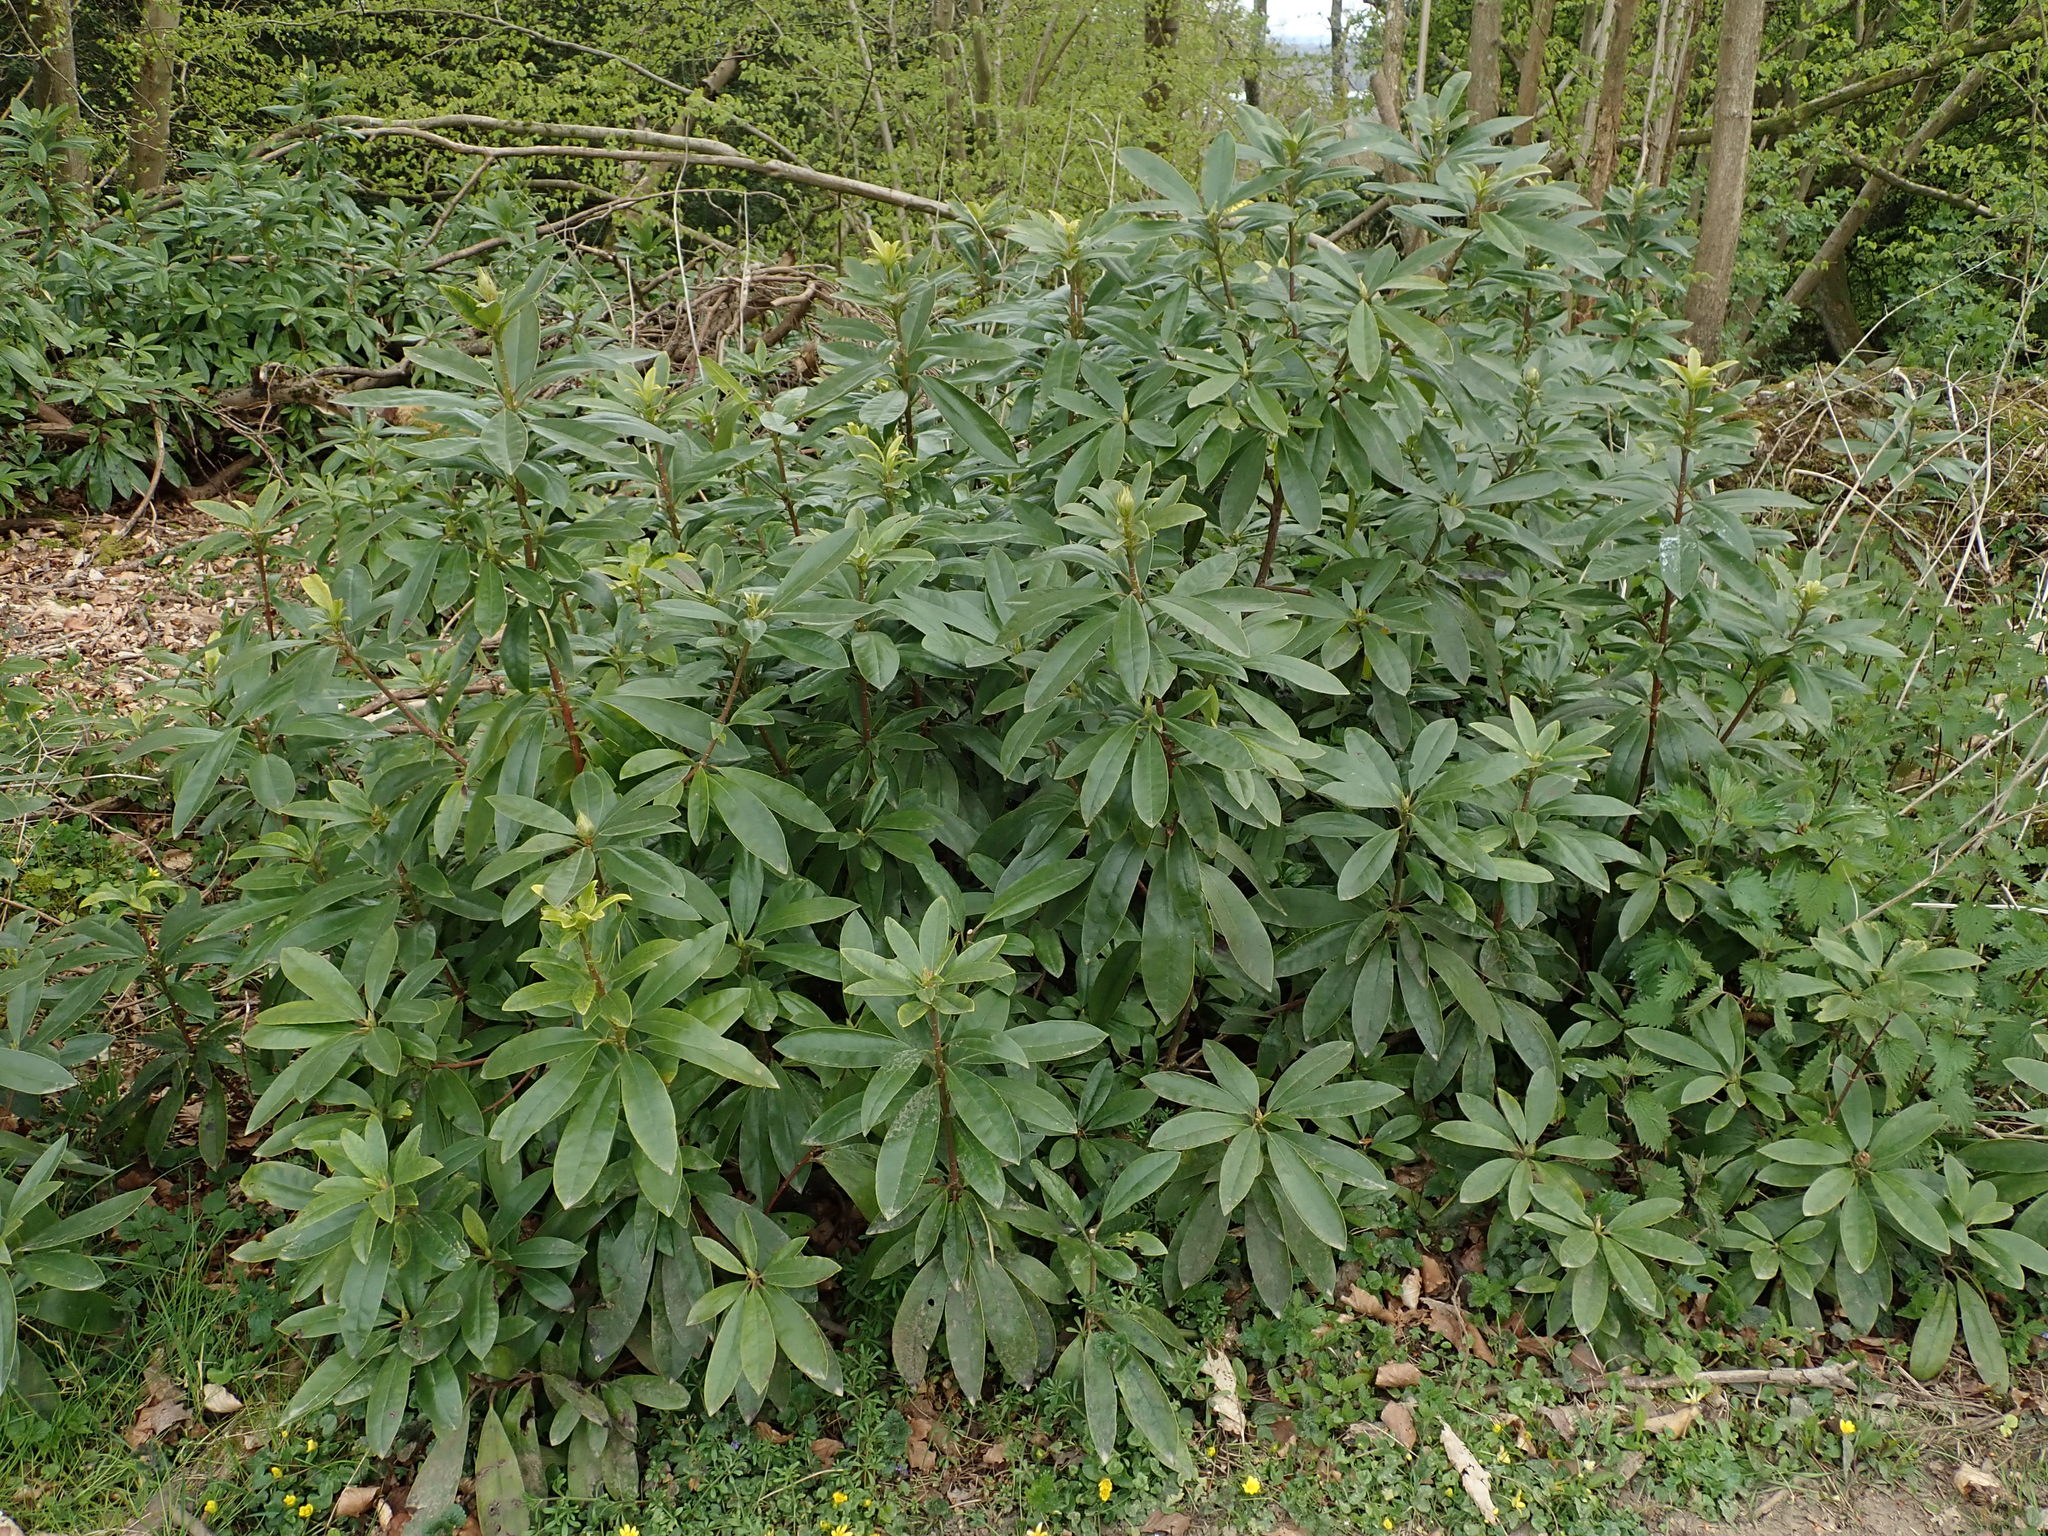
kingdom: Plantae
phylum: Tracheophyta
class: Magnoliopsida
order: Ericales
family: Ericaceae
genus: Rhododendron
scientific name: Rhododendron ponticum
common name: Rhododendron
